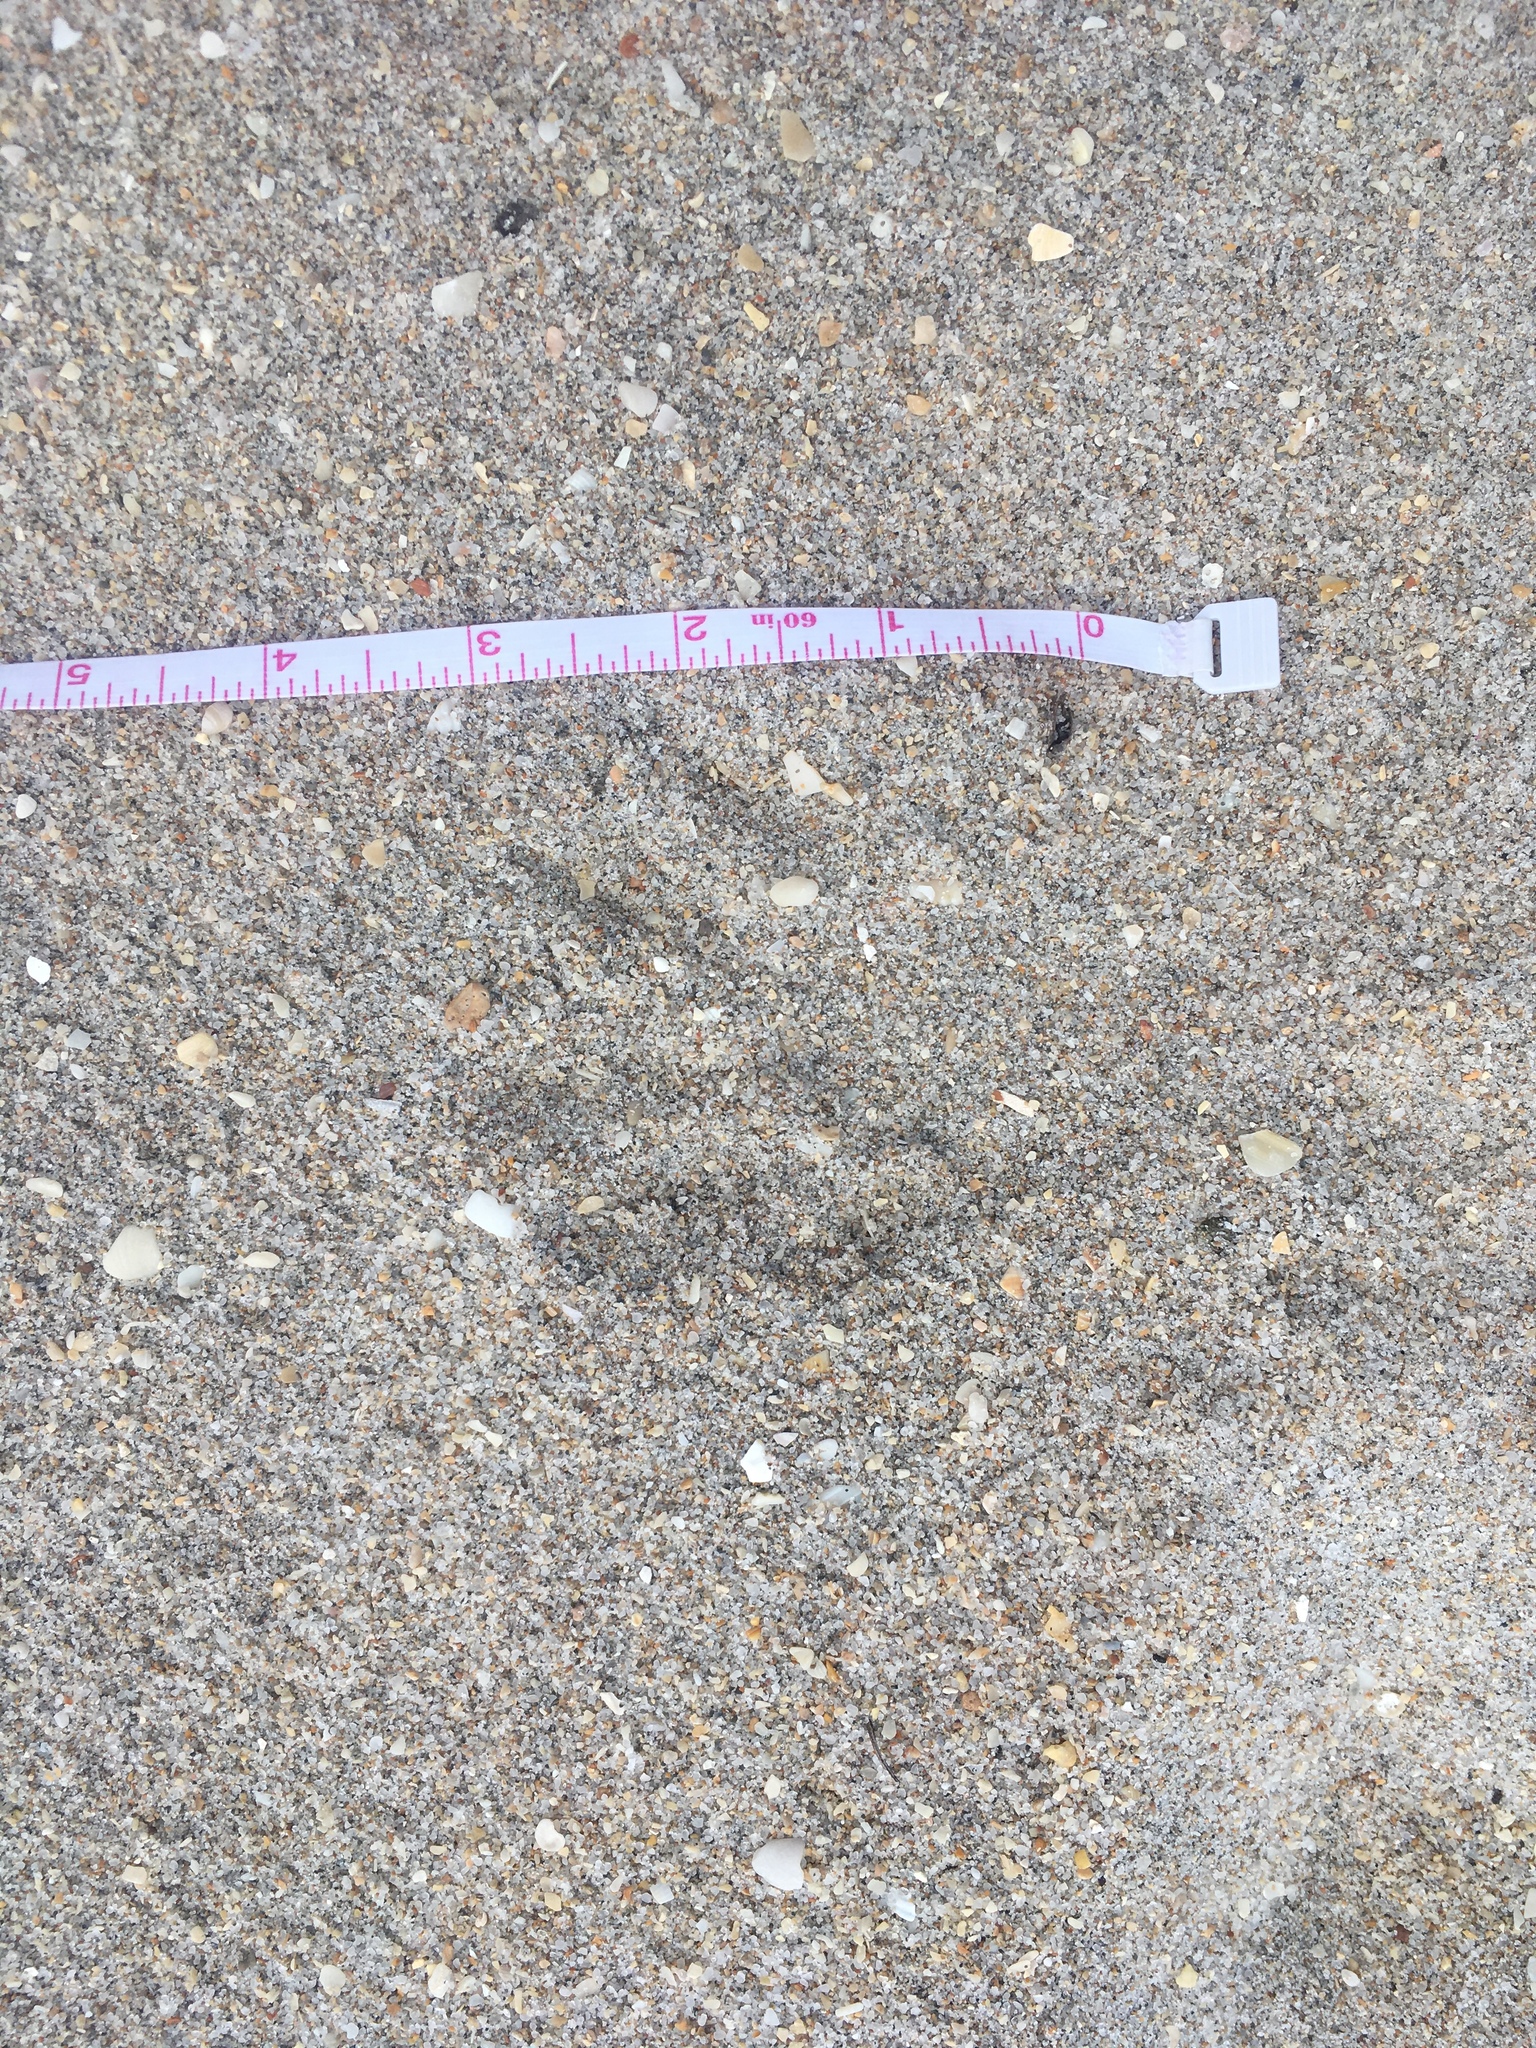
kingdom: Animalia
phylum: Chordata
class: Mammalia
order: Carnivora
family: Procyonidae
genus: Procyon
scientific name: Procyon lotor
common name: Raccoon
